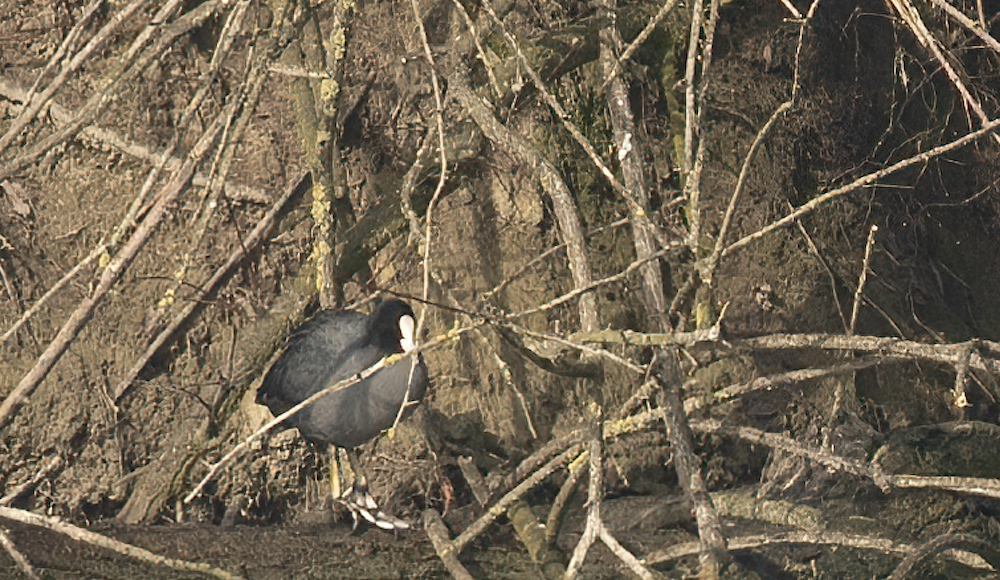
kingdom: Animalia
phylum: Chordata
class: Aves
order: Gruiformes
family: Rallidae
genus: Fulica
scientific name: Fulica atra
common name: Eurasian coot
